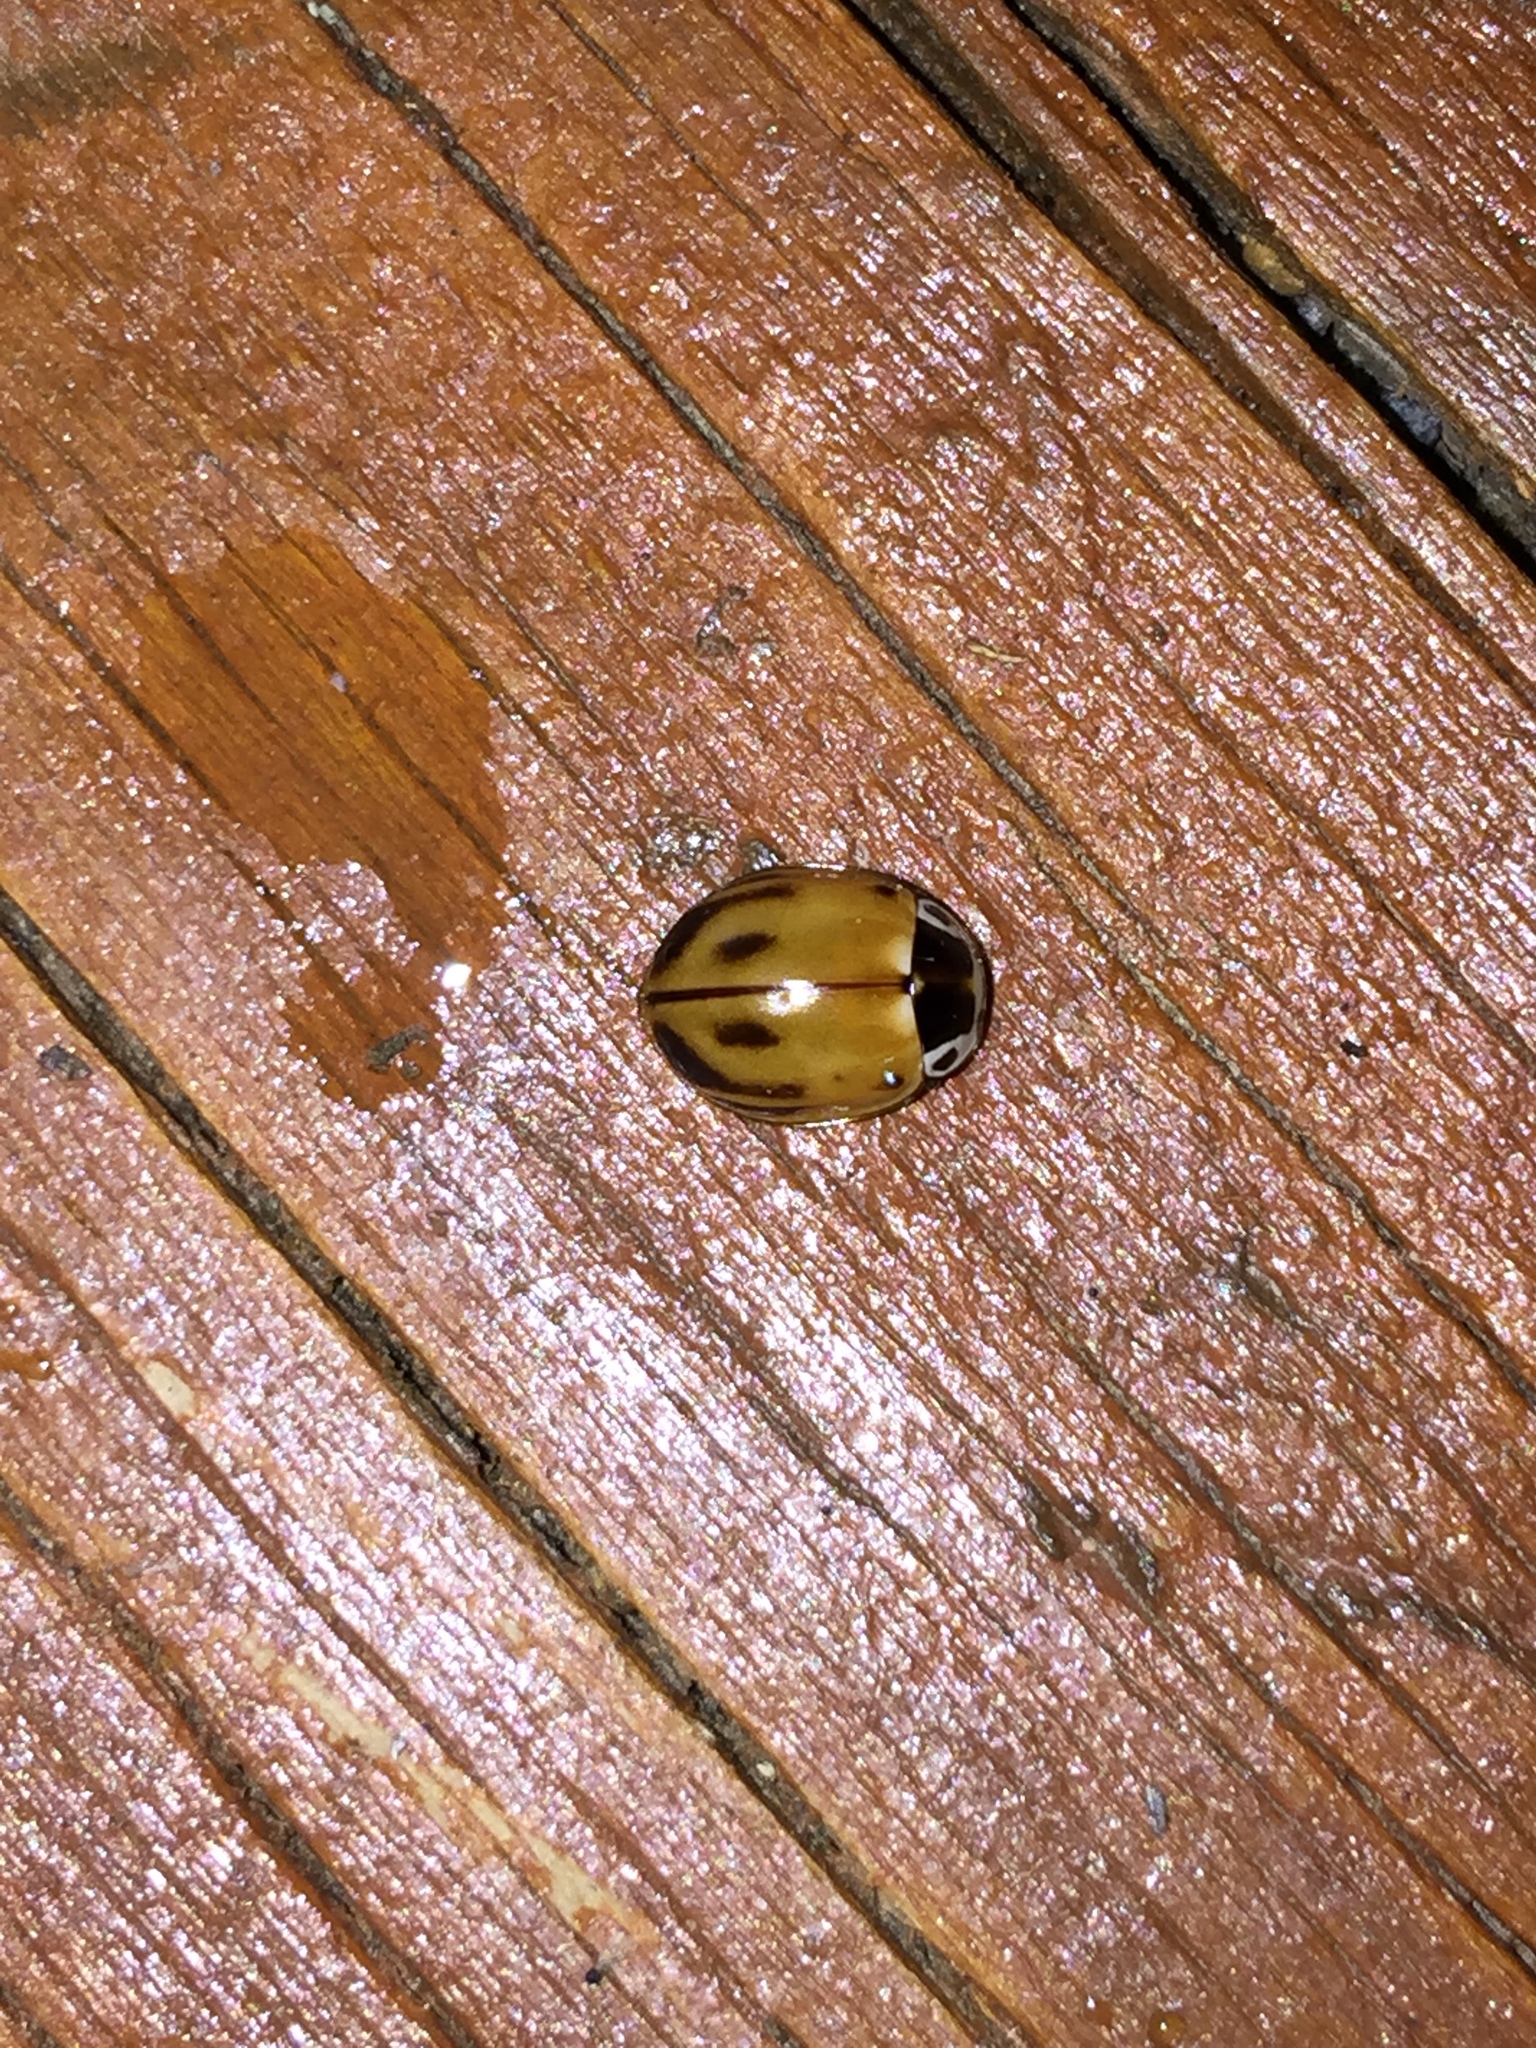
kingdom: Animalia
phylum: Arthropoda
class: Insecta
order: Coleoptera
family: Coccinellidae
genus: Myzia
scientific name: Myzia pullata
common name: Streaked lady beetle
